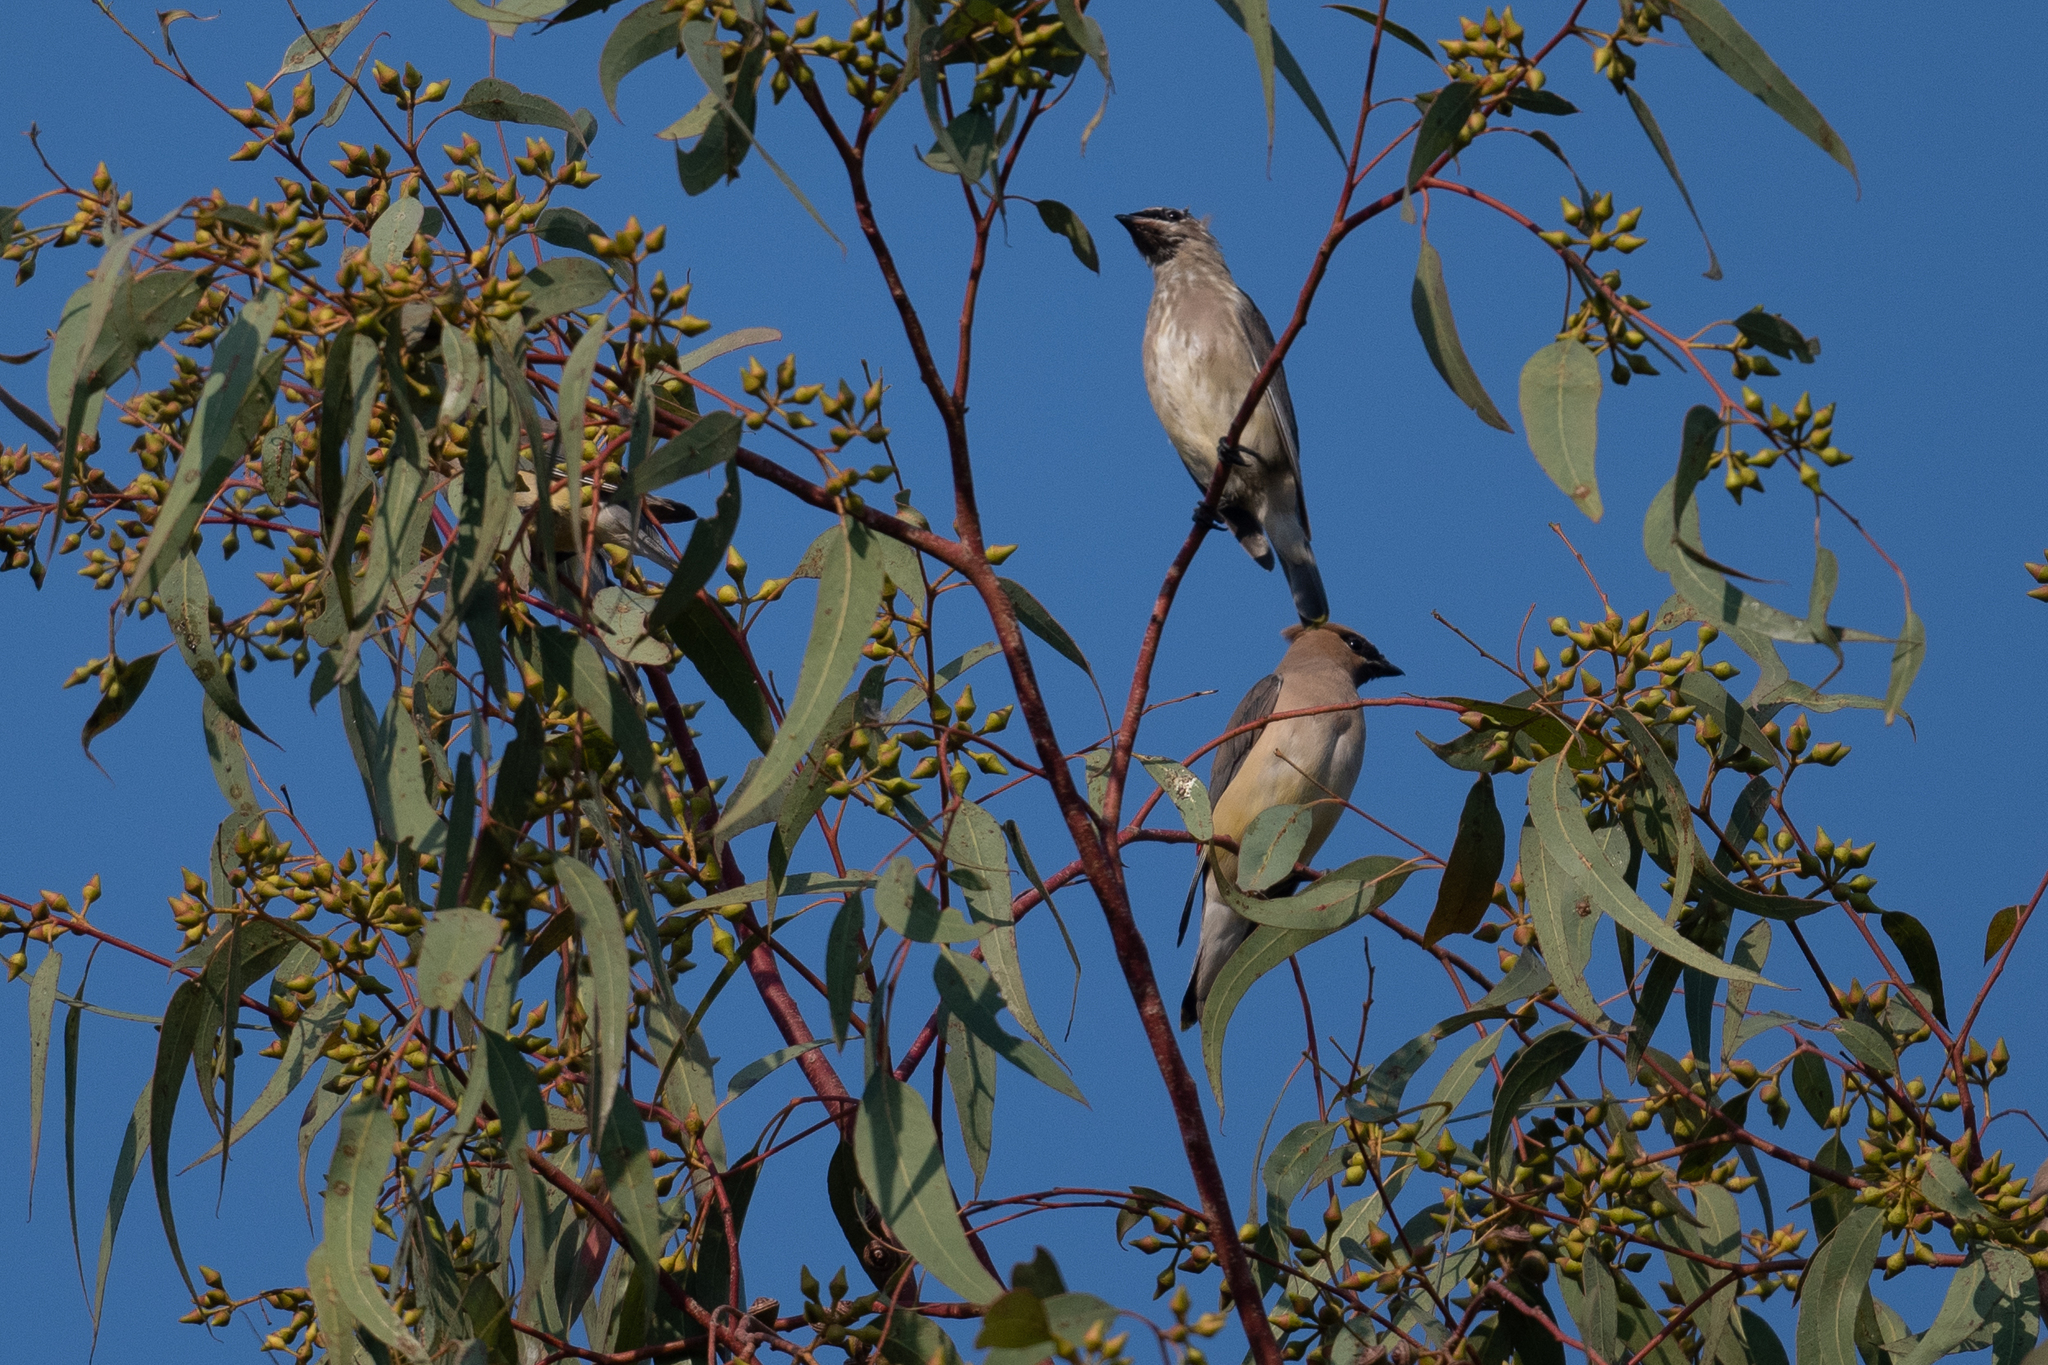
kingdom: Animalia
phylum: Chordata
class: Aves
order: Passeriformes
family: Bombycillidae
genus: Bombycilla
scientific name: Bombycilla cedrorum
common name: Cedar waxwing
